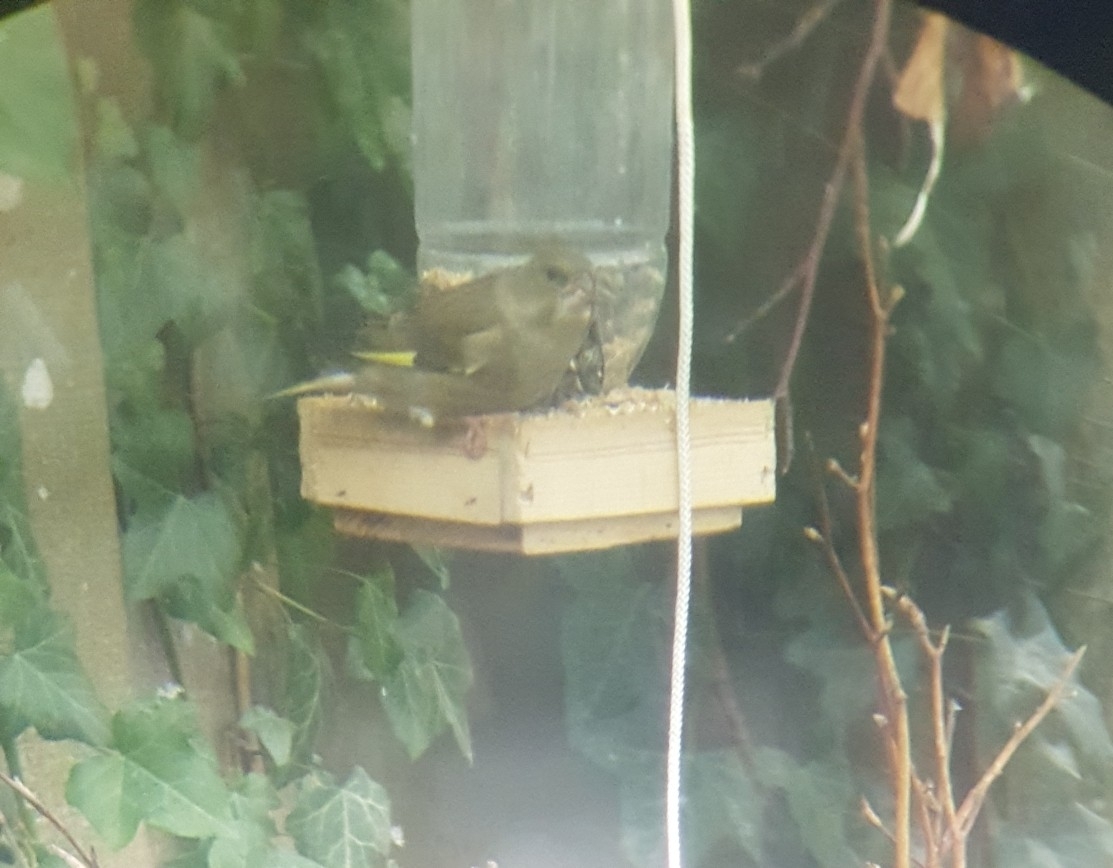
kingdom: Plantae
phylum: Tracheophyta
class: Liliopsida
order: Poales
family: Poaceae
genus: Chloris
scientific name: Chloris chloris
